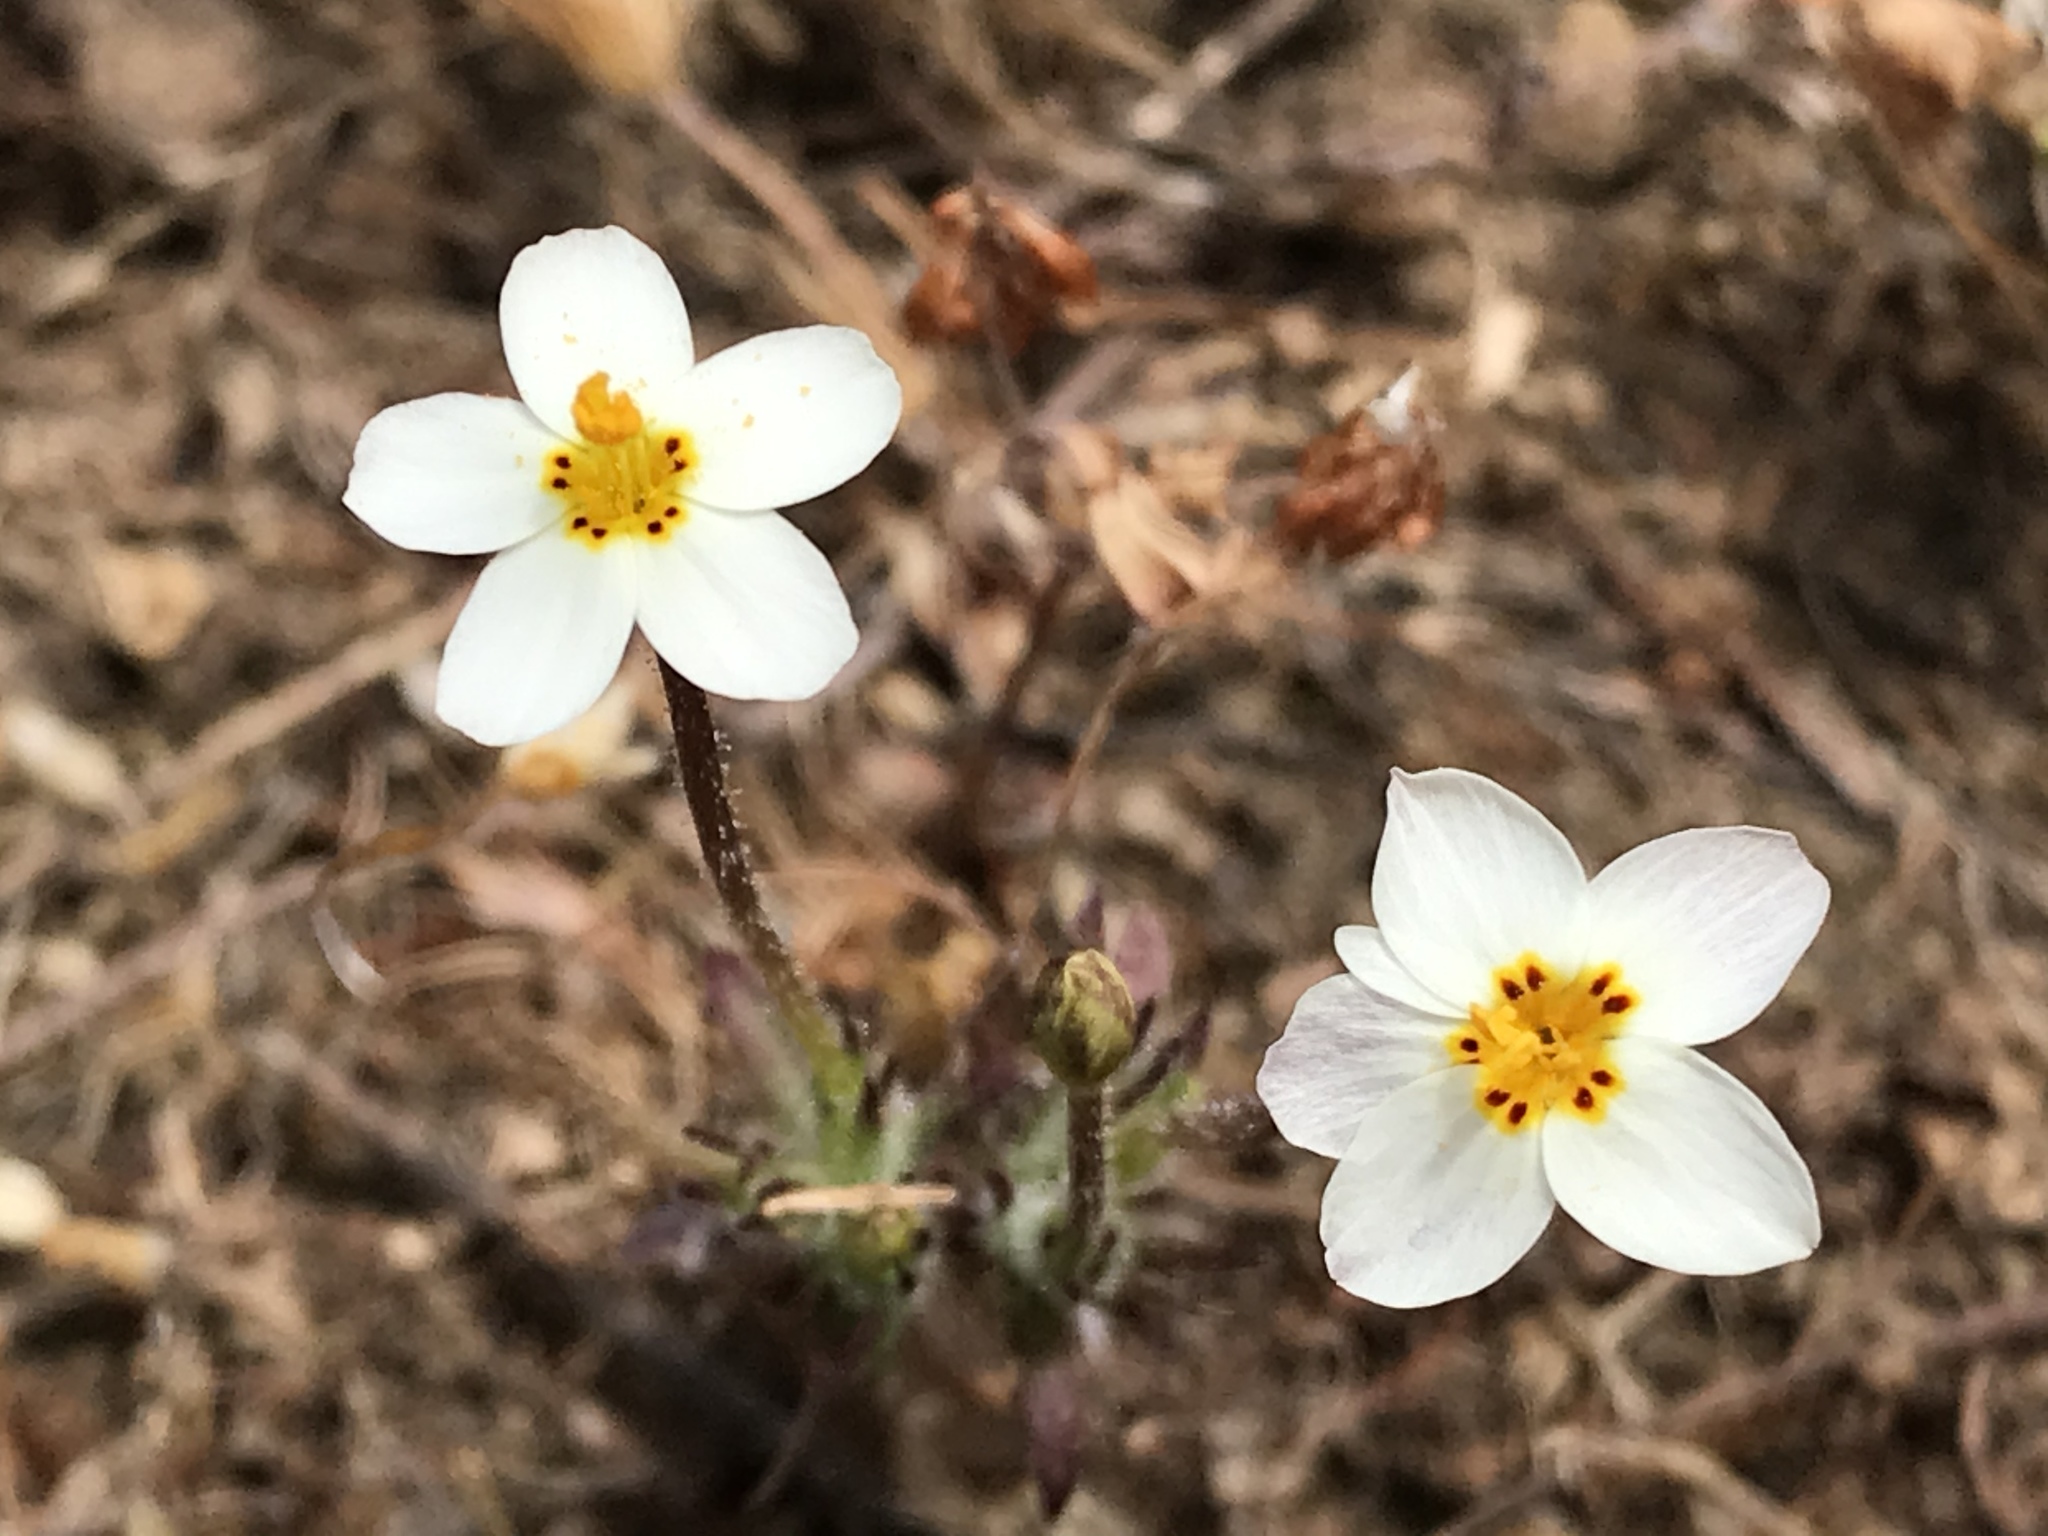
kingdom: Plantae
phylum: Tracheophyta
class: Magnoliopsida
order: Ericales
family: Polemoniaceae
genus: Leptosiphon
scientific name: Leptosiphon parviflorus
